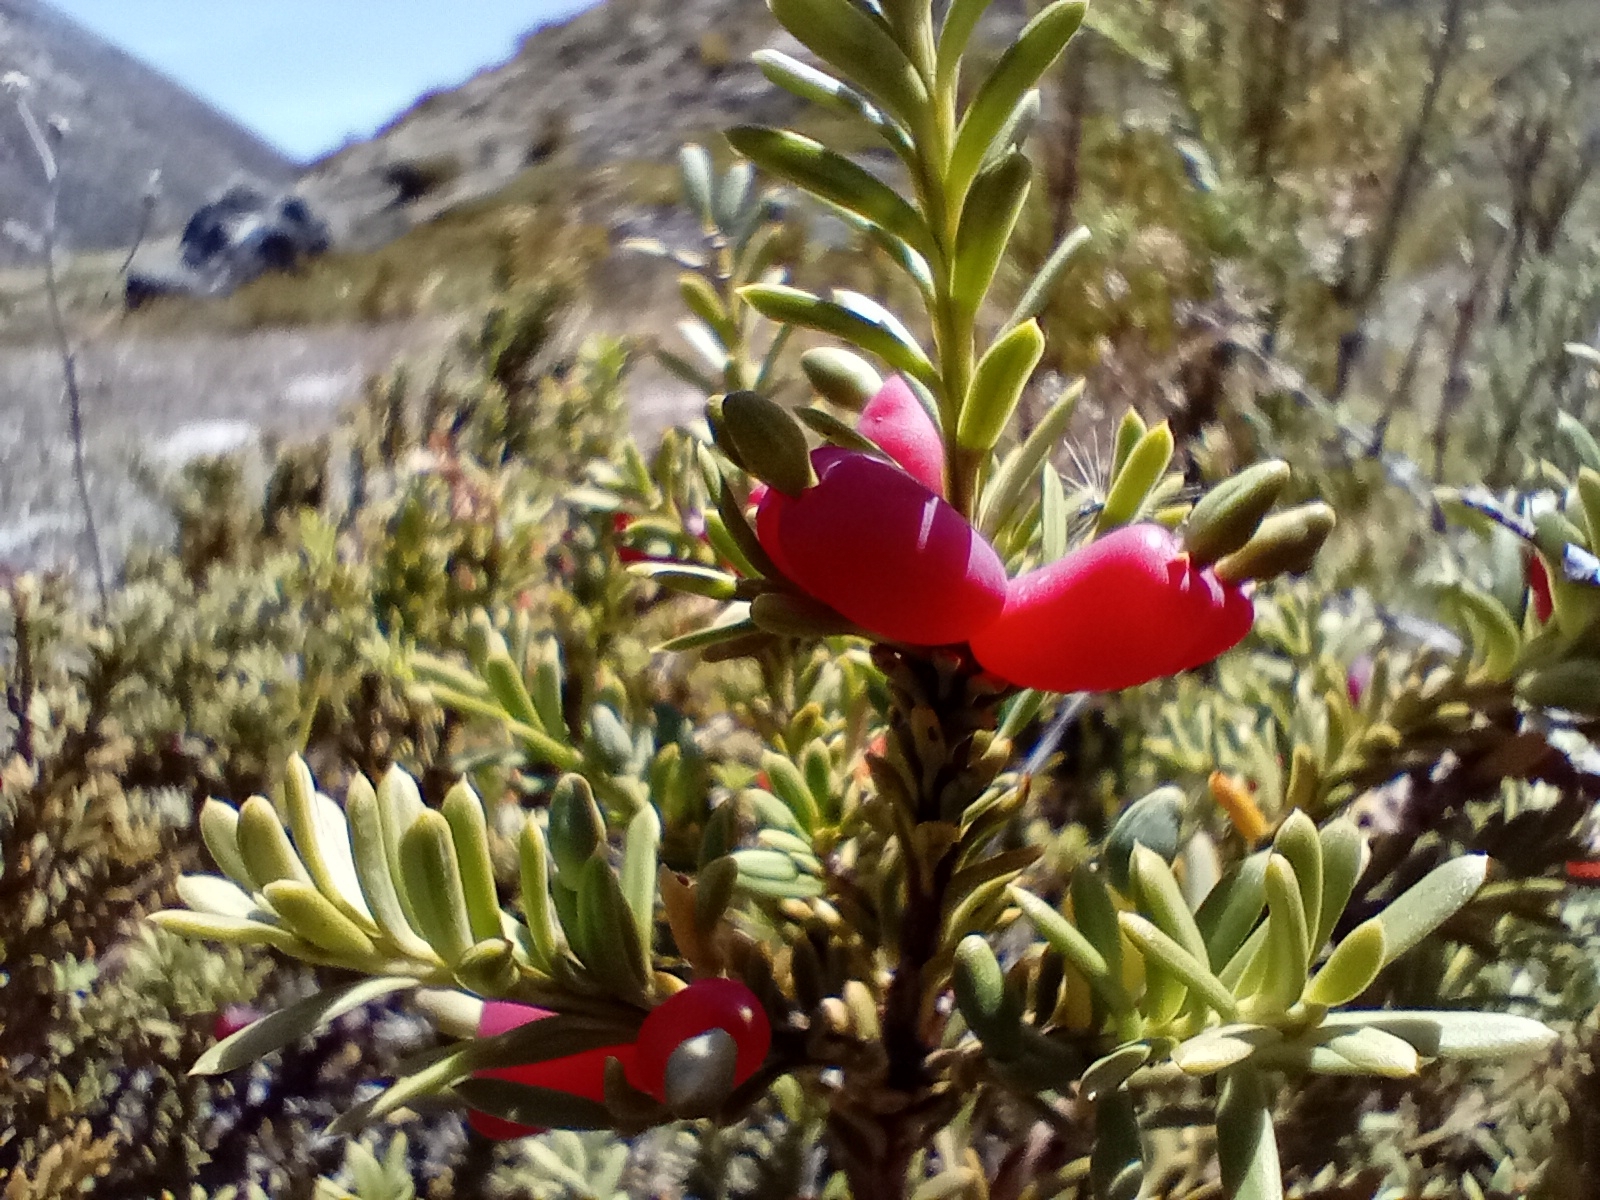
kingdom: Plantae
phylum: Tracheophyta
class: Pinopsida
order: Pinales
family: Podocarpaceae
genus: Podocarpus
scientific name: Podocarpus nivalis
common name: Alpine totara
